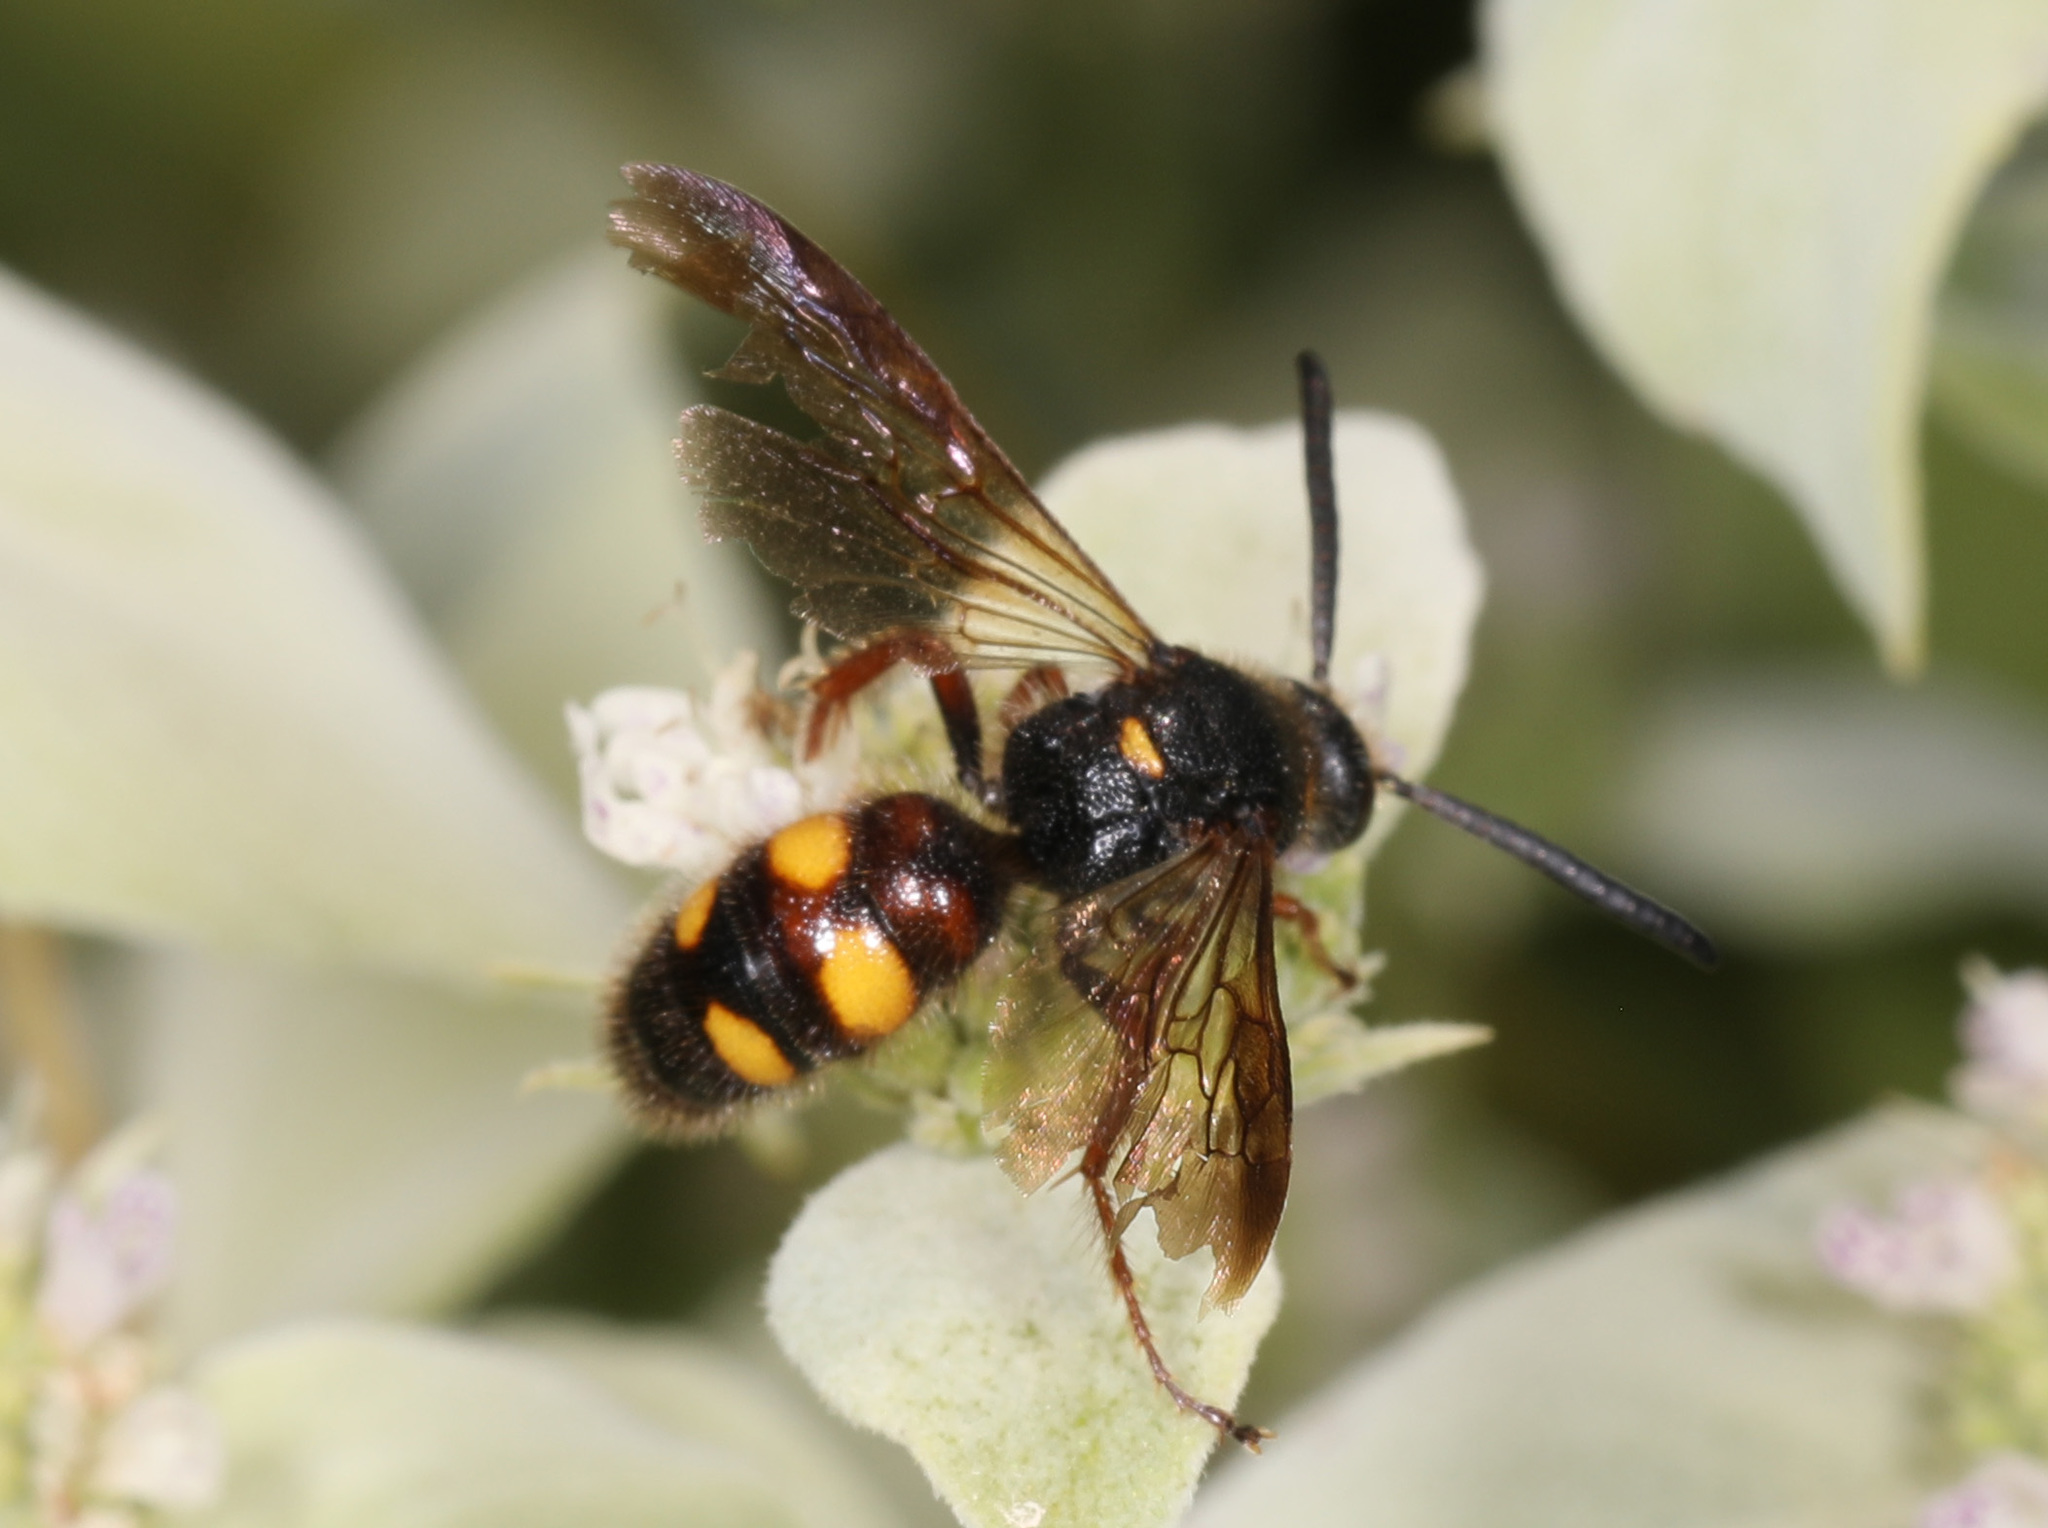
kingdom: Animalia
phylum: Arthropoda
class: Insecta
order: Hymenoptera
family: Scoliidae
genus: Scolia
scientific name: Scolia nobilitata
